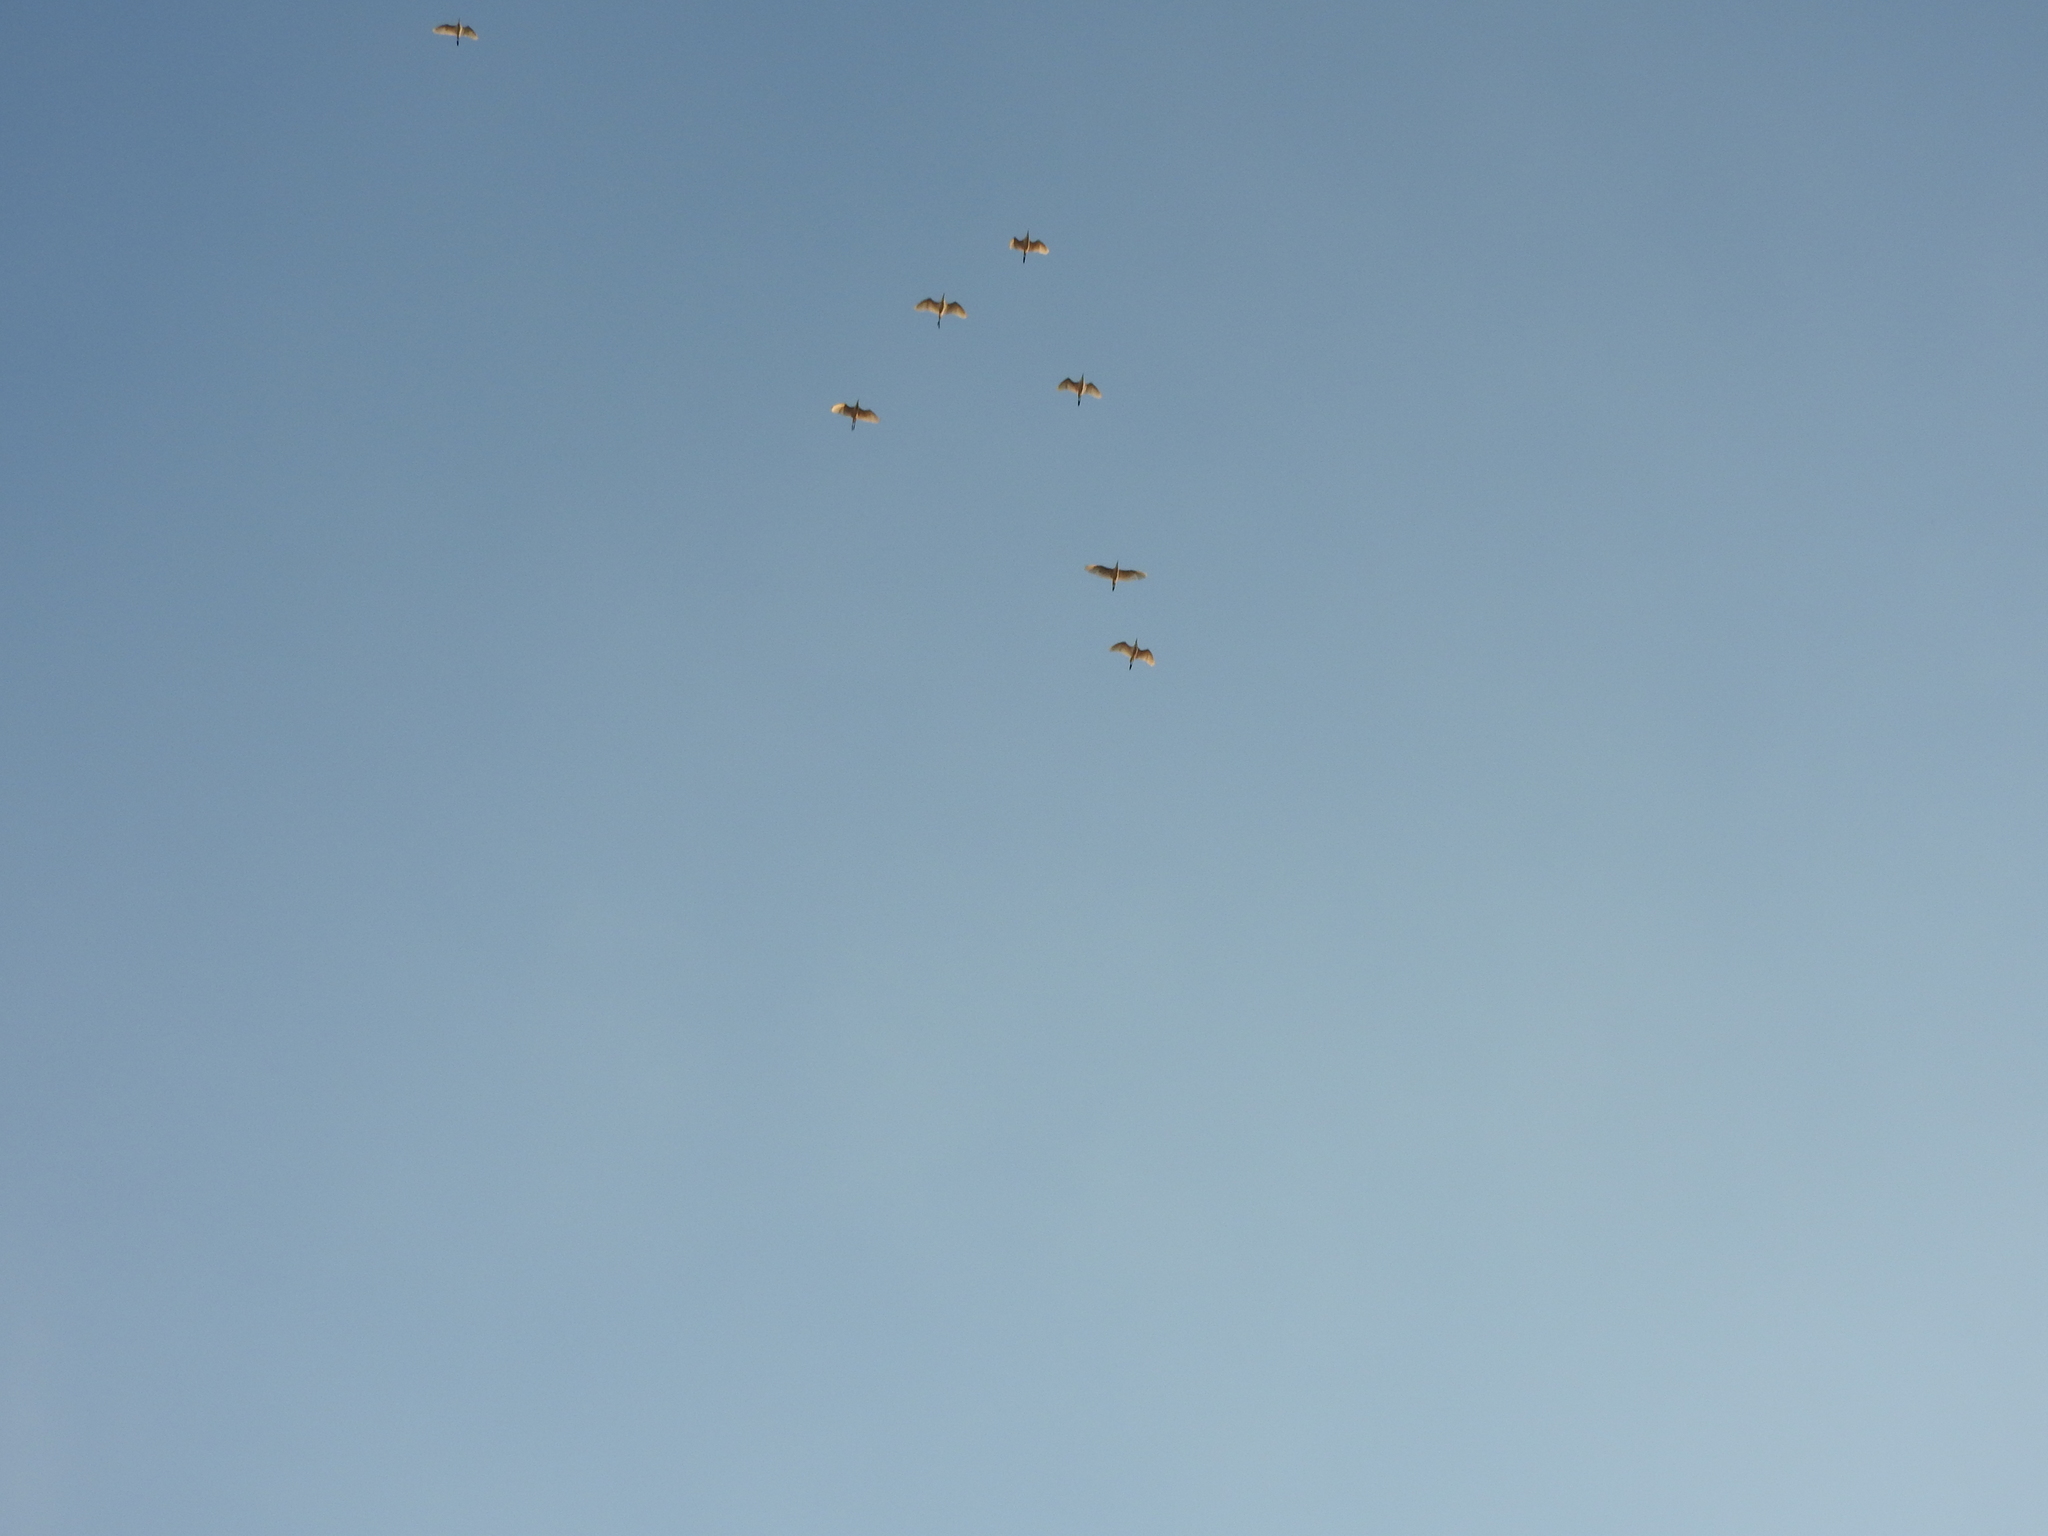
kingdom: Animalia
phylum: Chordata
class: Aves
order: Pelecaniformes
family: Ardeidae
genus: Bubulcus
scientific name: Bubulcus ibis
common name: Cattle egret
